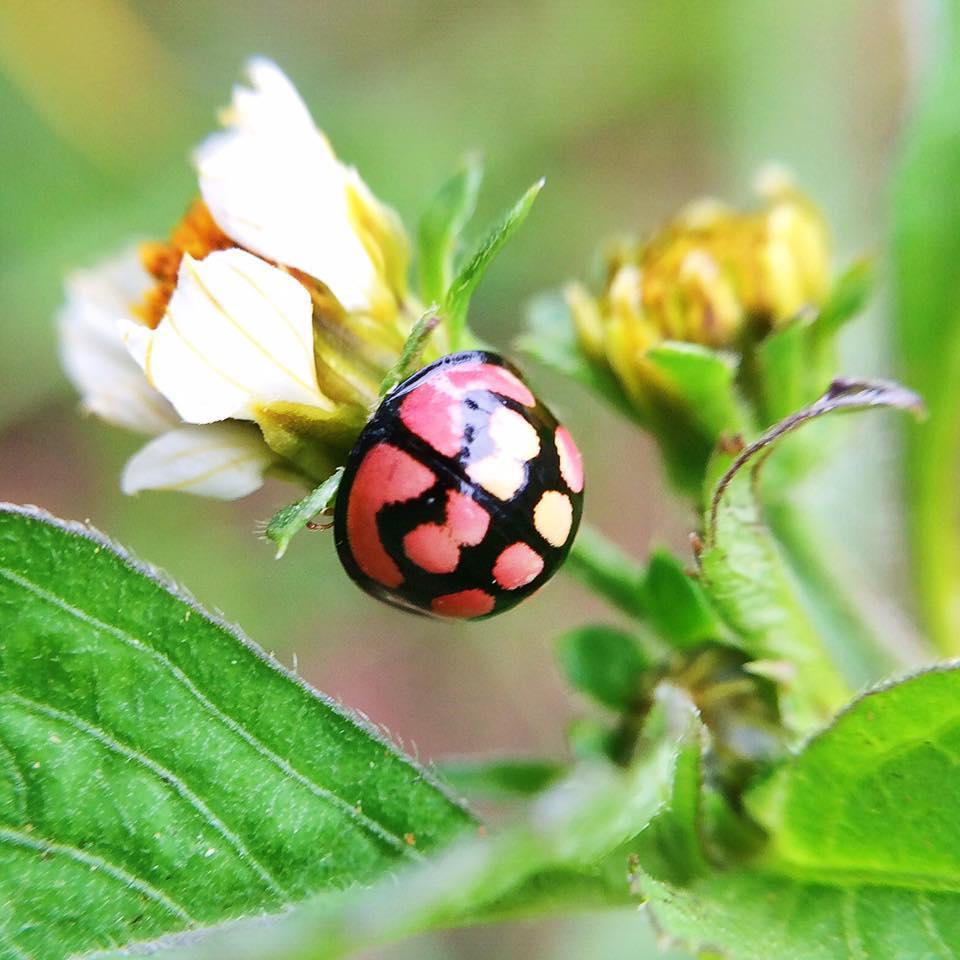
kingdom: Animalia
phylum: Arthropoda
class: Insecta
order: Coleoptera
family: Coccinellidae
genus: Cheilomenes
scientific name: Cheilomenes lunata
